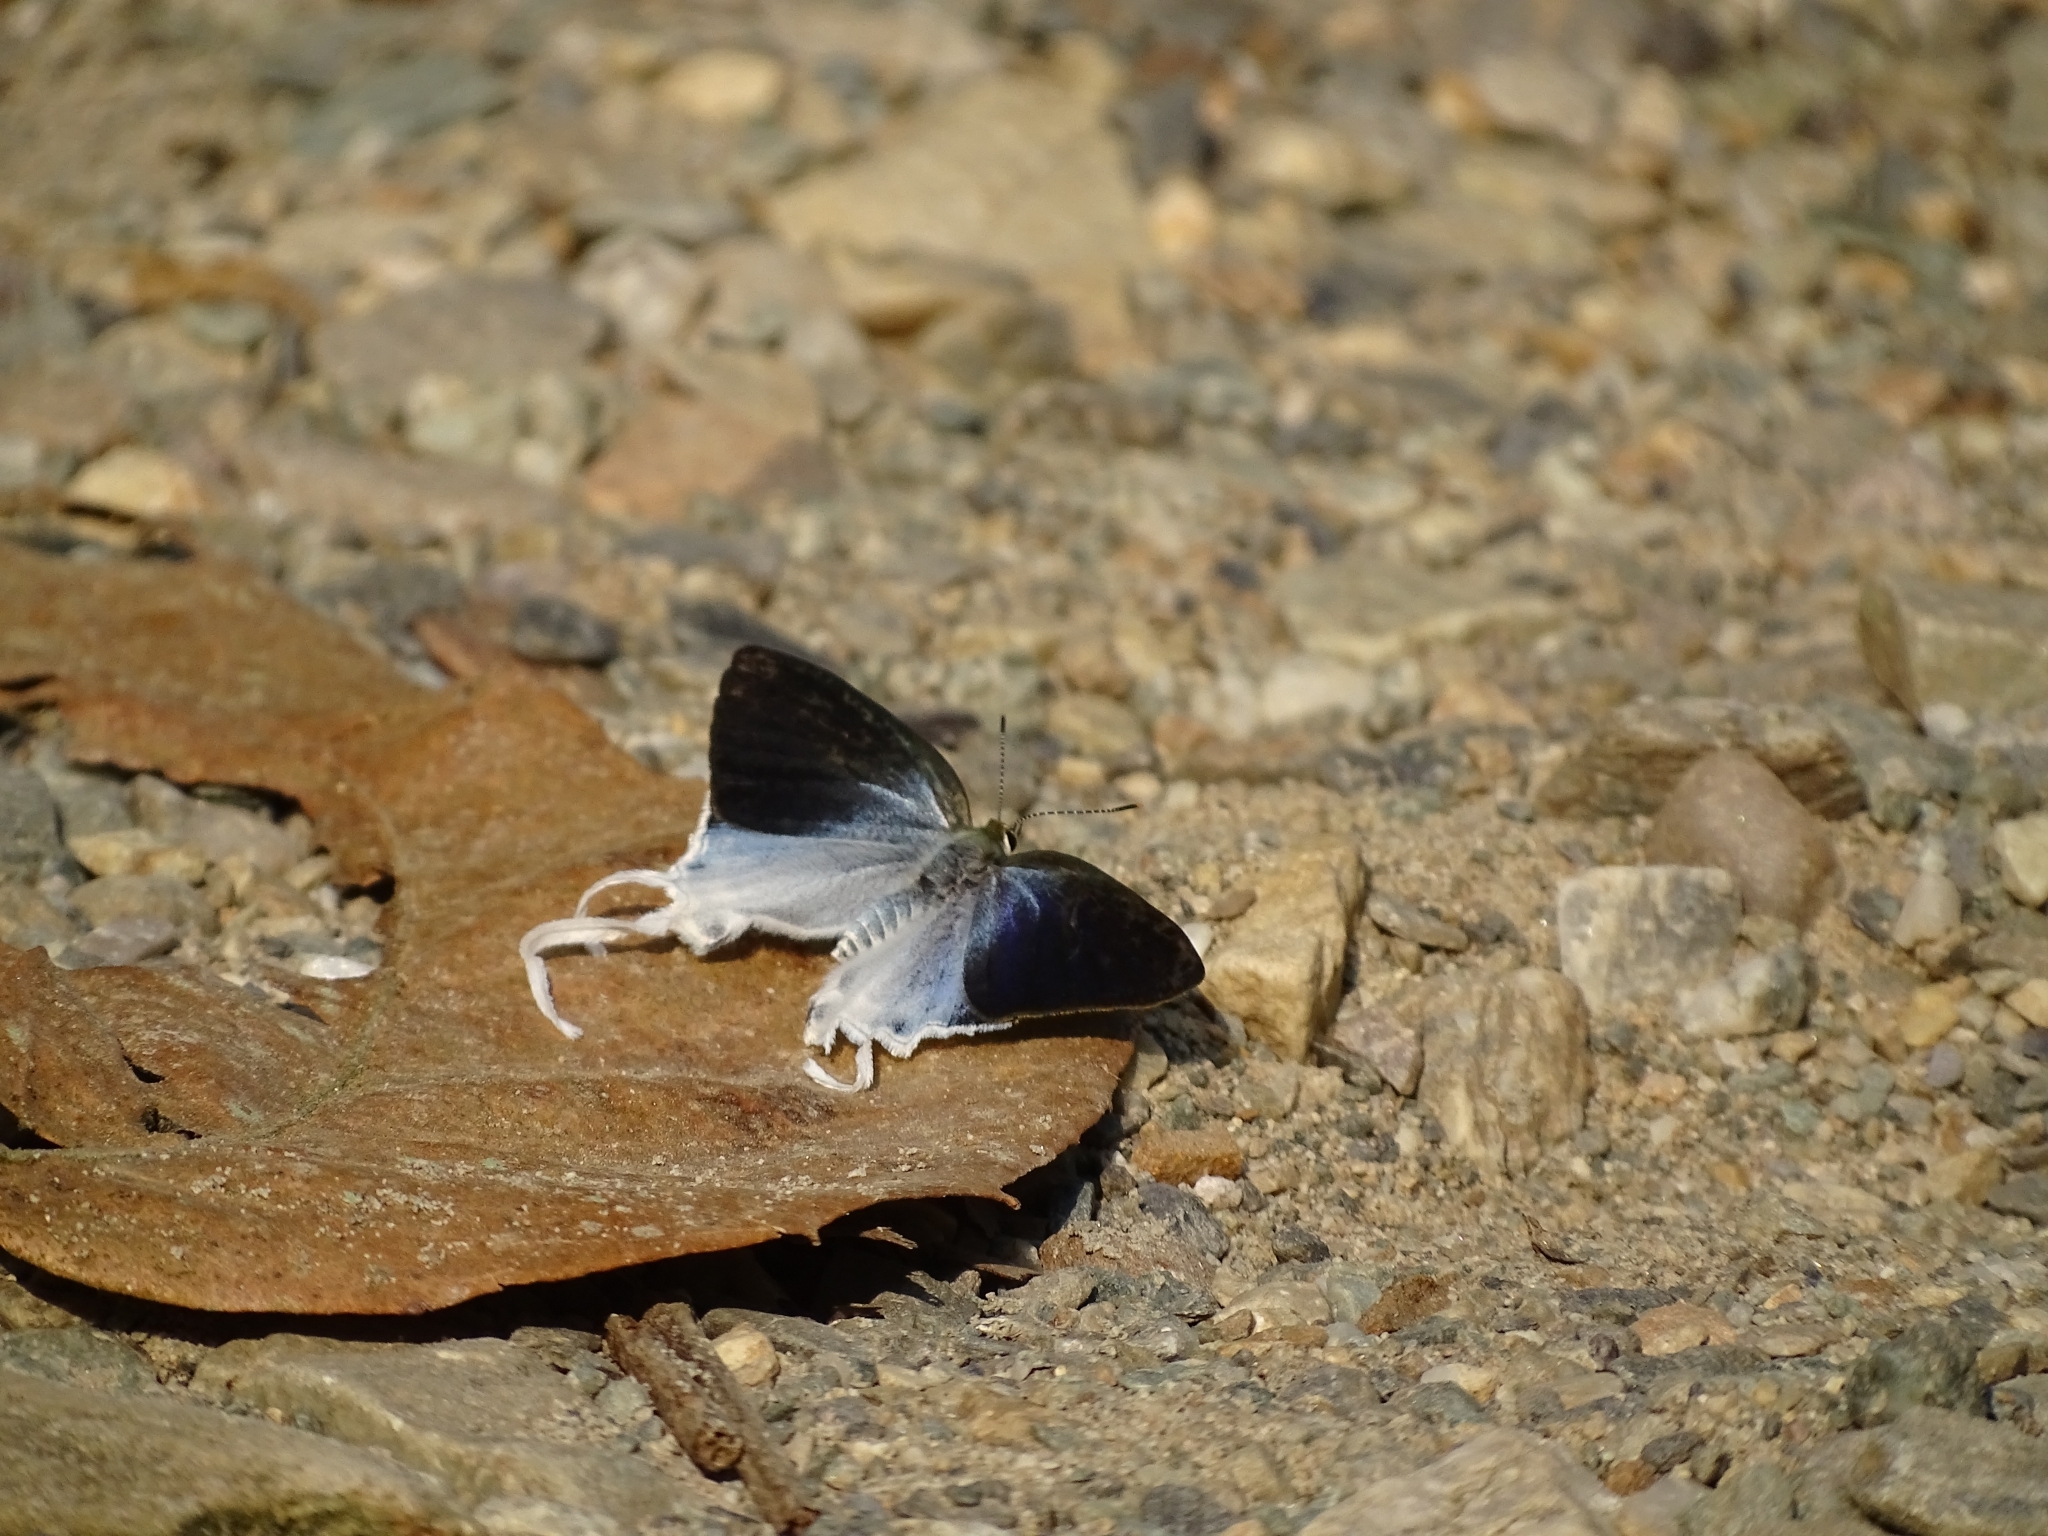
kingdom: Animalia
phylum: Arthropoda
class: Insecta
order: Lepidoptera
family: Lycaenidae
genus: Zeltus
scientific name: Zeltus amasa
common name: Fluffy tit
